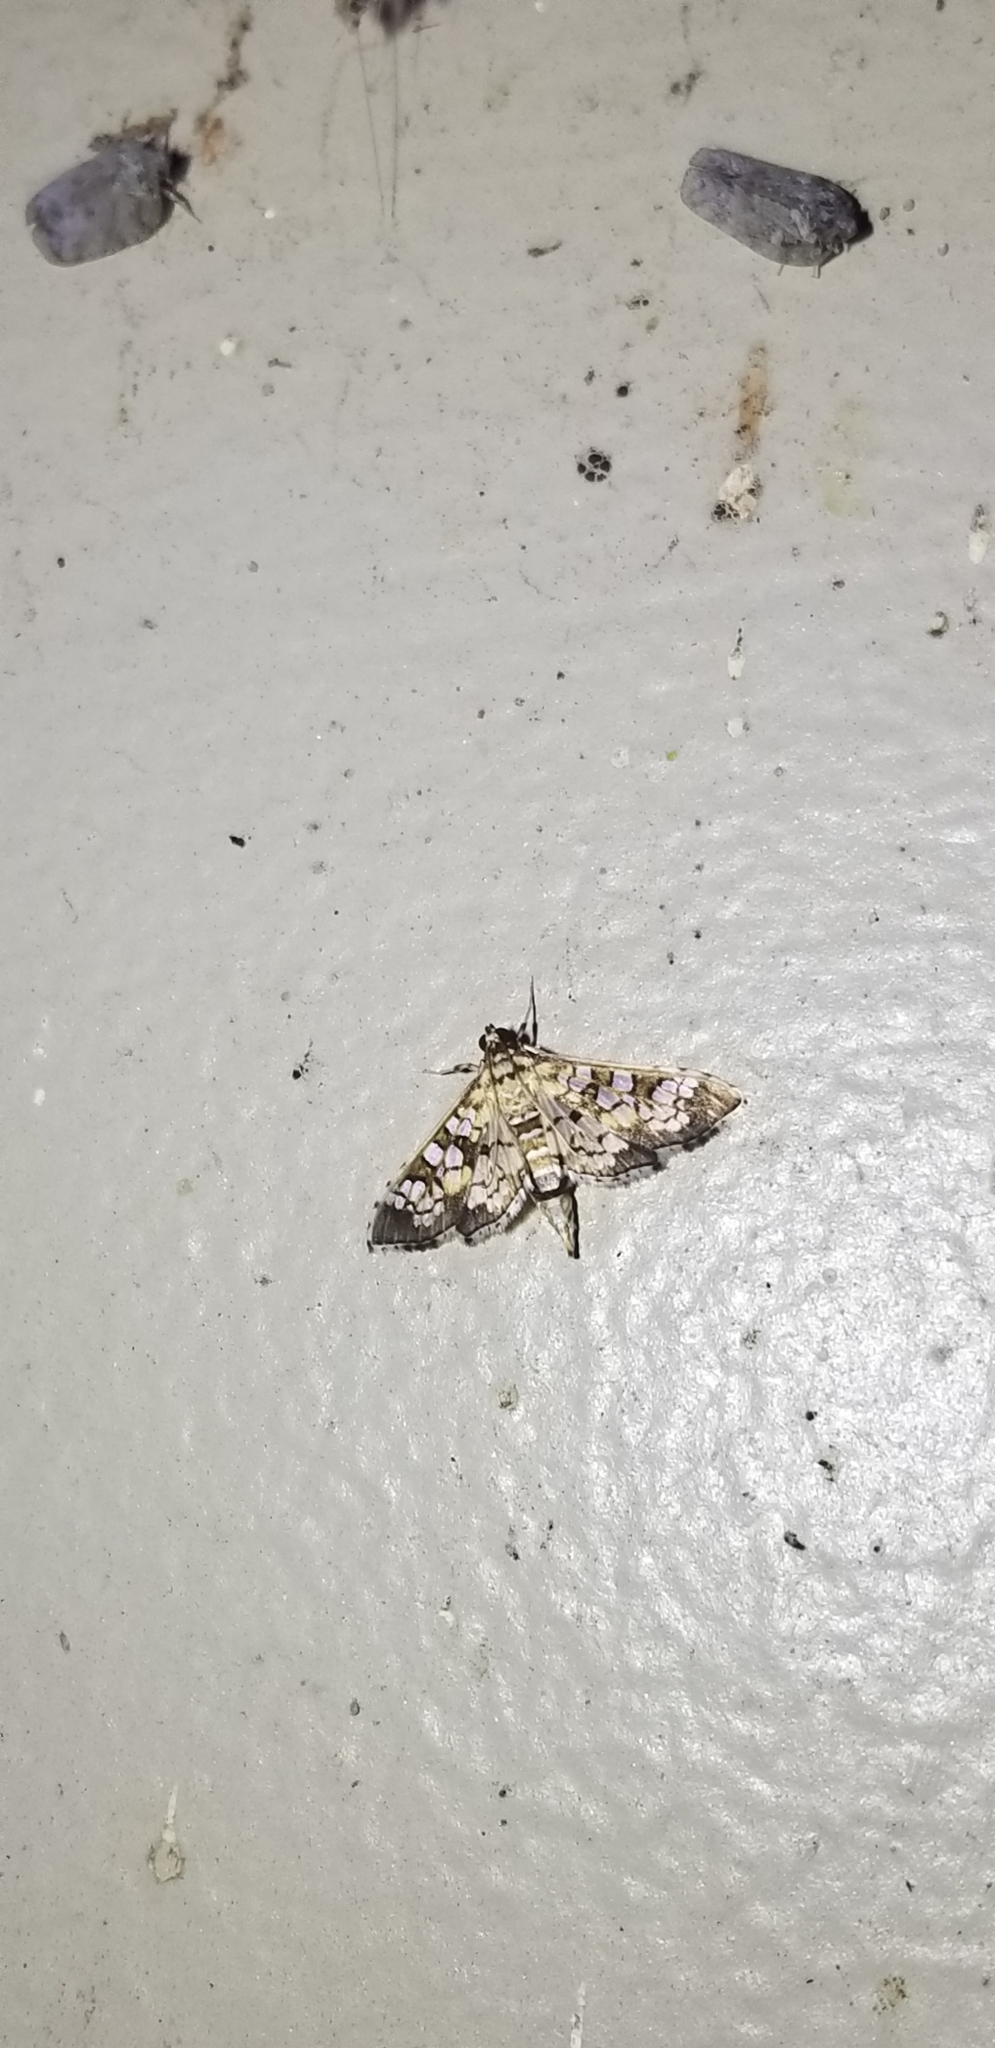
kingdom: Animalia
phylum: Arthropoda
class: Insecta
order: Lepidoptera
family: Crambidae
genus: Samea
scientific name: Samea ecclesialis
